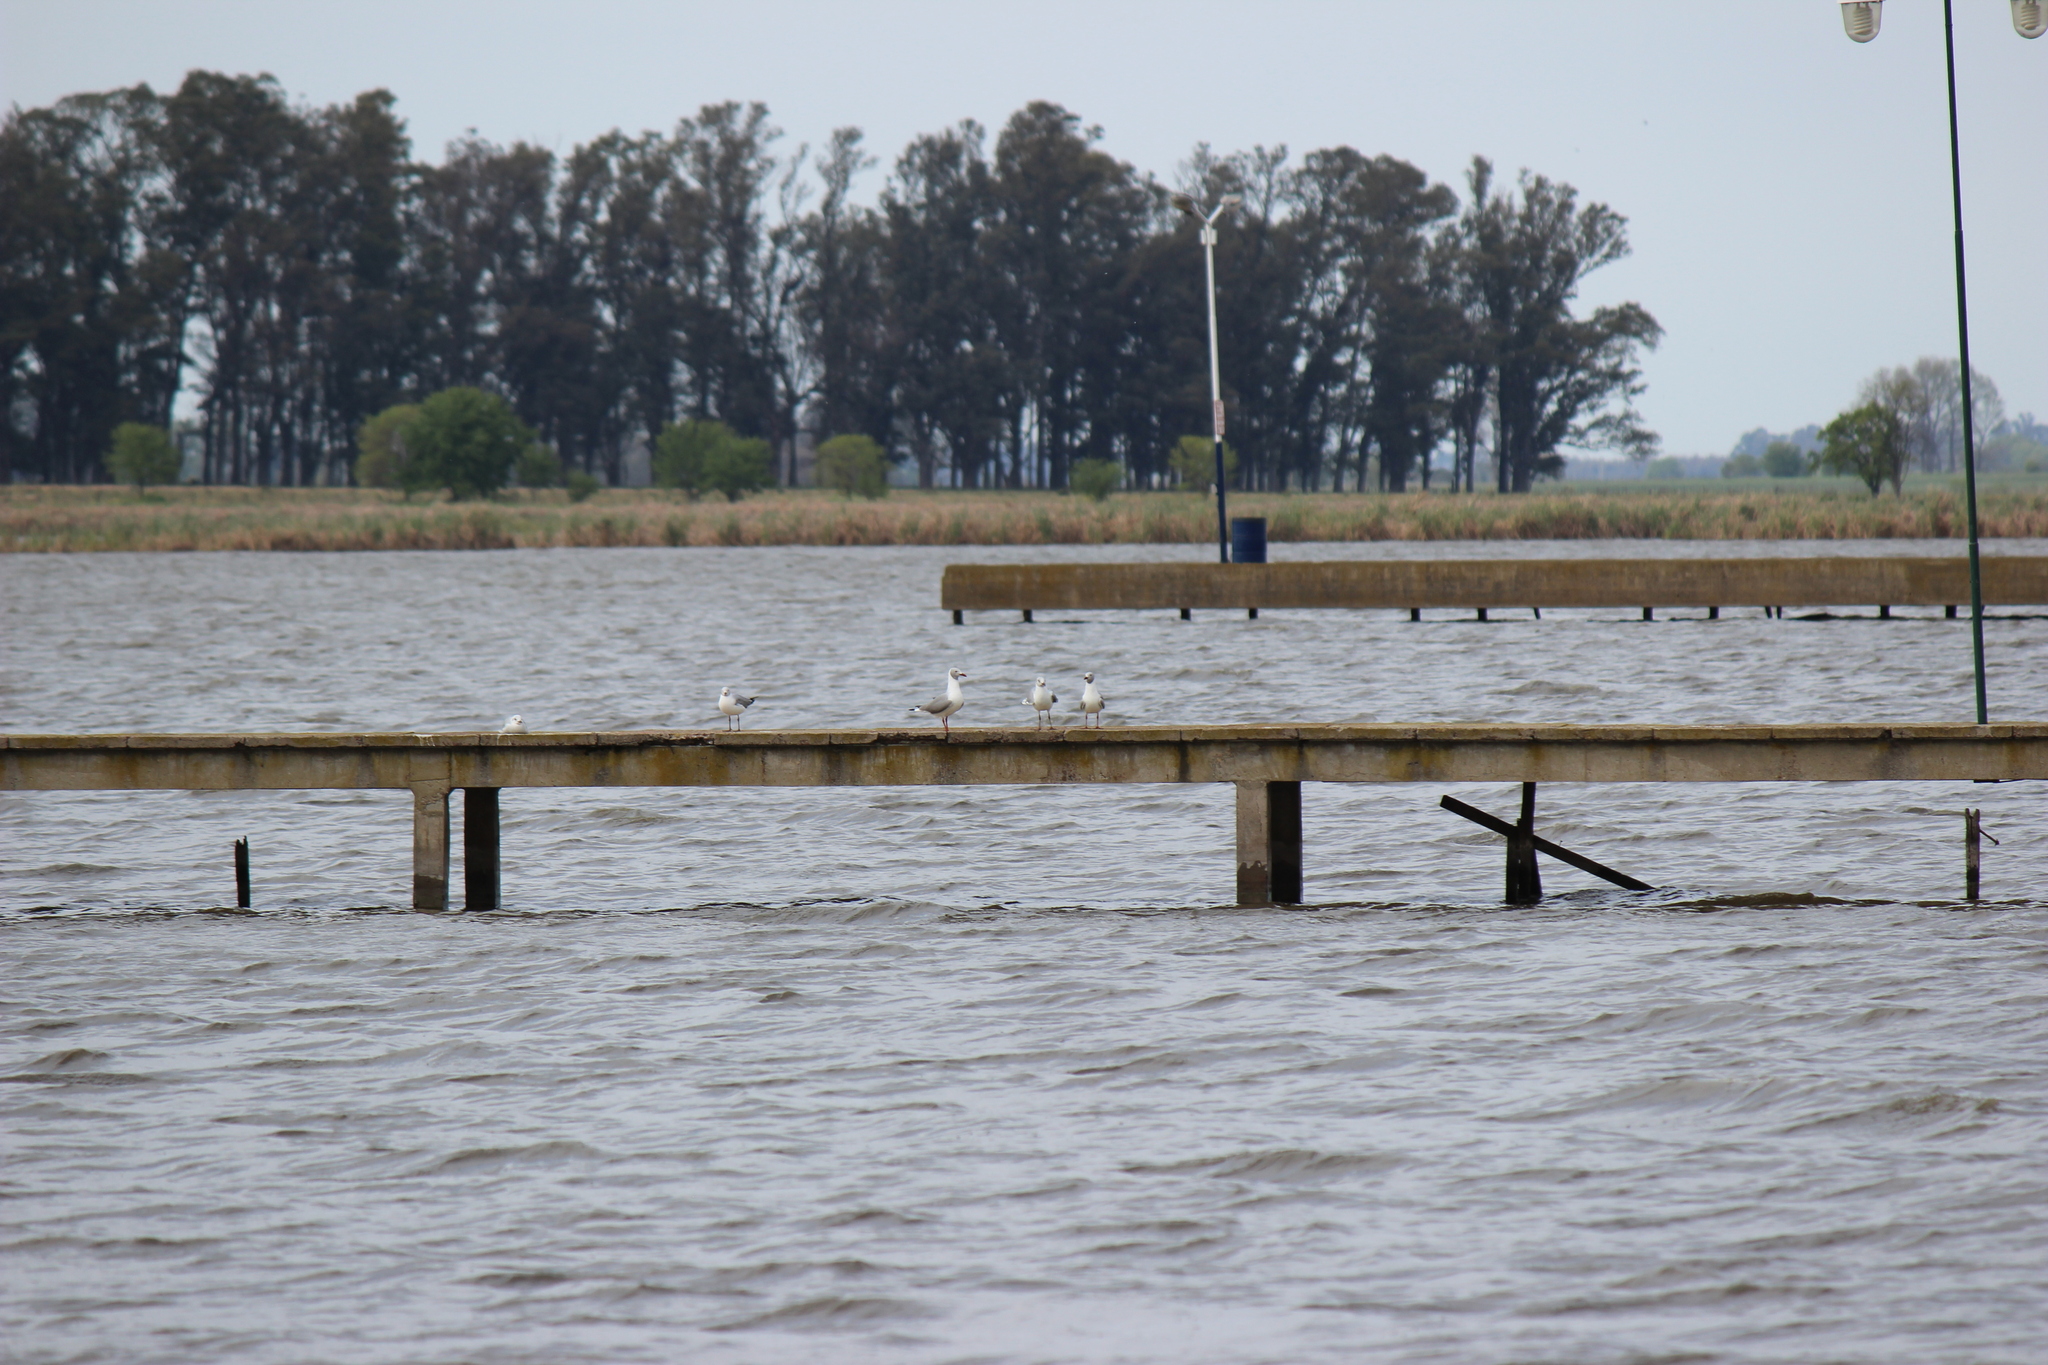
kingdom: Animalia
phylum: Chordata
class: Aves
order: Charadriiformes
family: Laridae
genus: Chroicocephalus
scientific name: Chroicocephalus cirrocephalus
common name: Grey-headed gull
